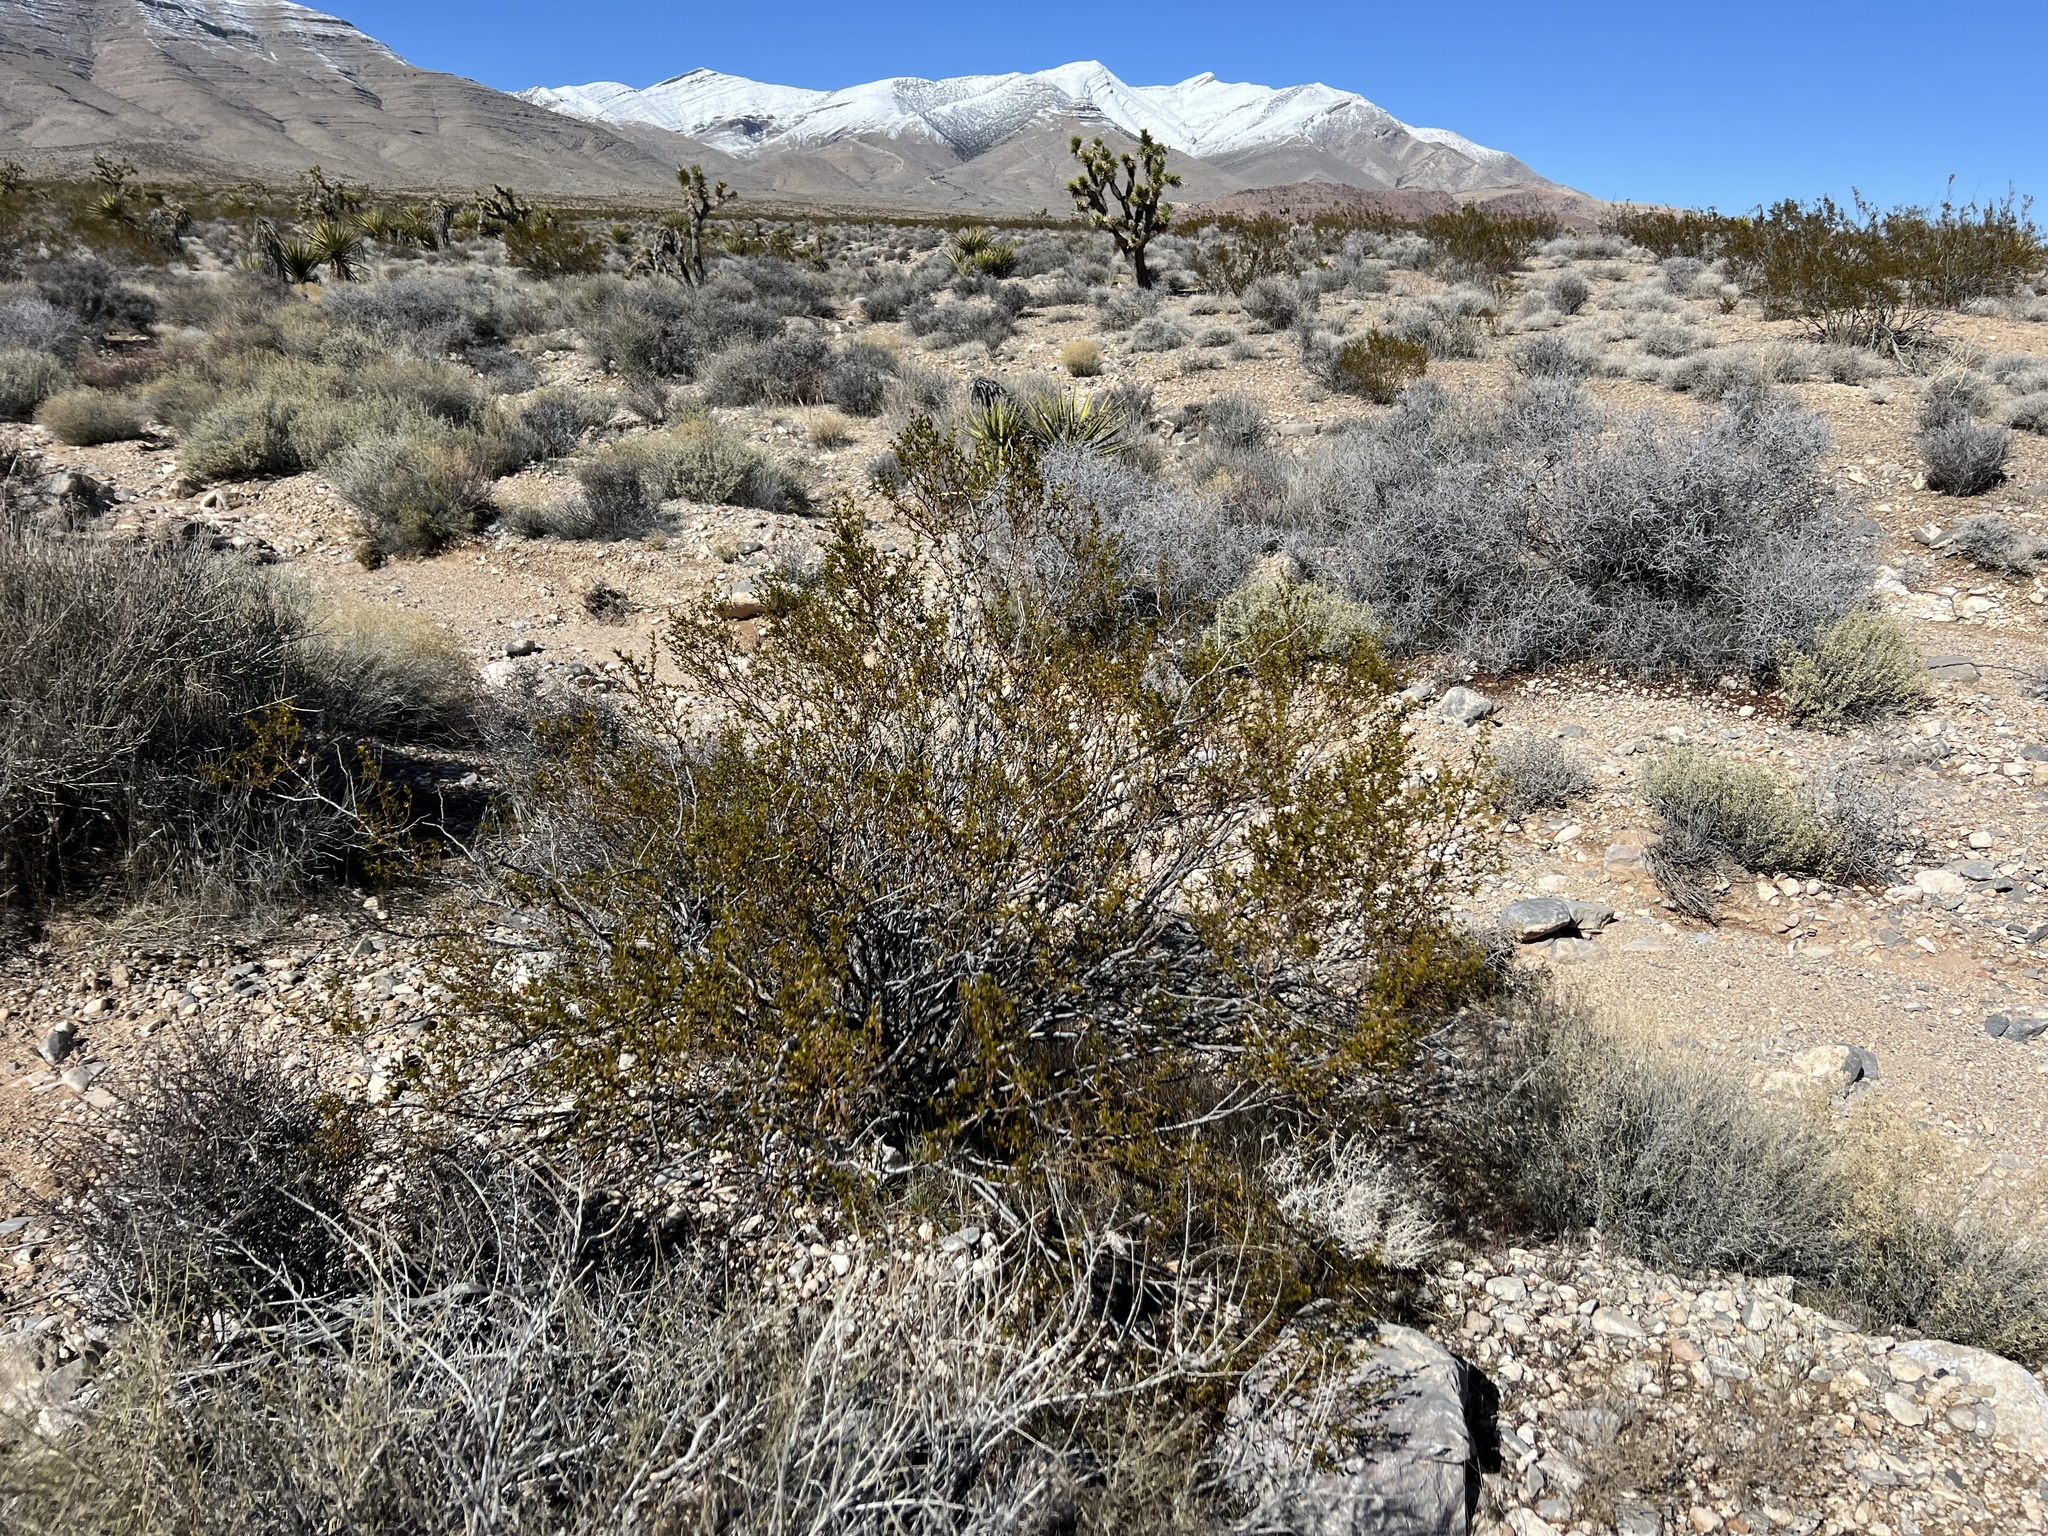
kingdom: Plantae
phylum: Tracheophyta
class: Magnoliopsida
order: Zygophyllales
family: Zygophyllaceae
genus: Larrea
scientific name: Larrea tridentata
